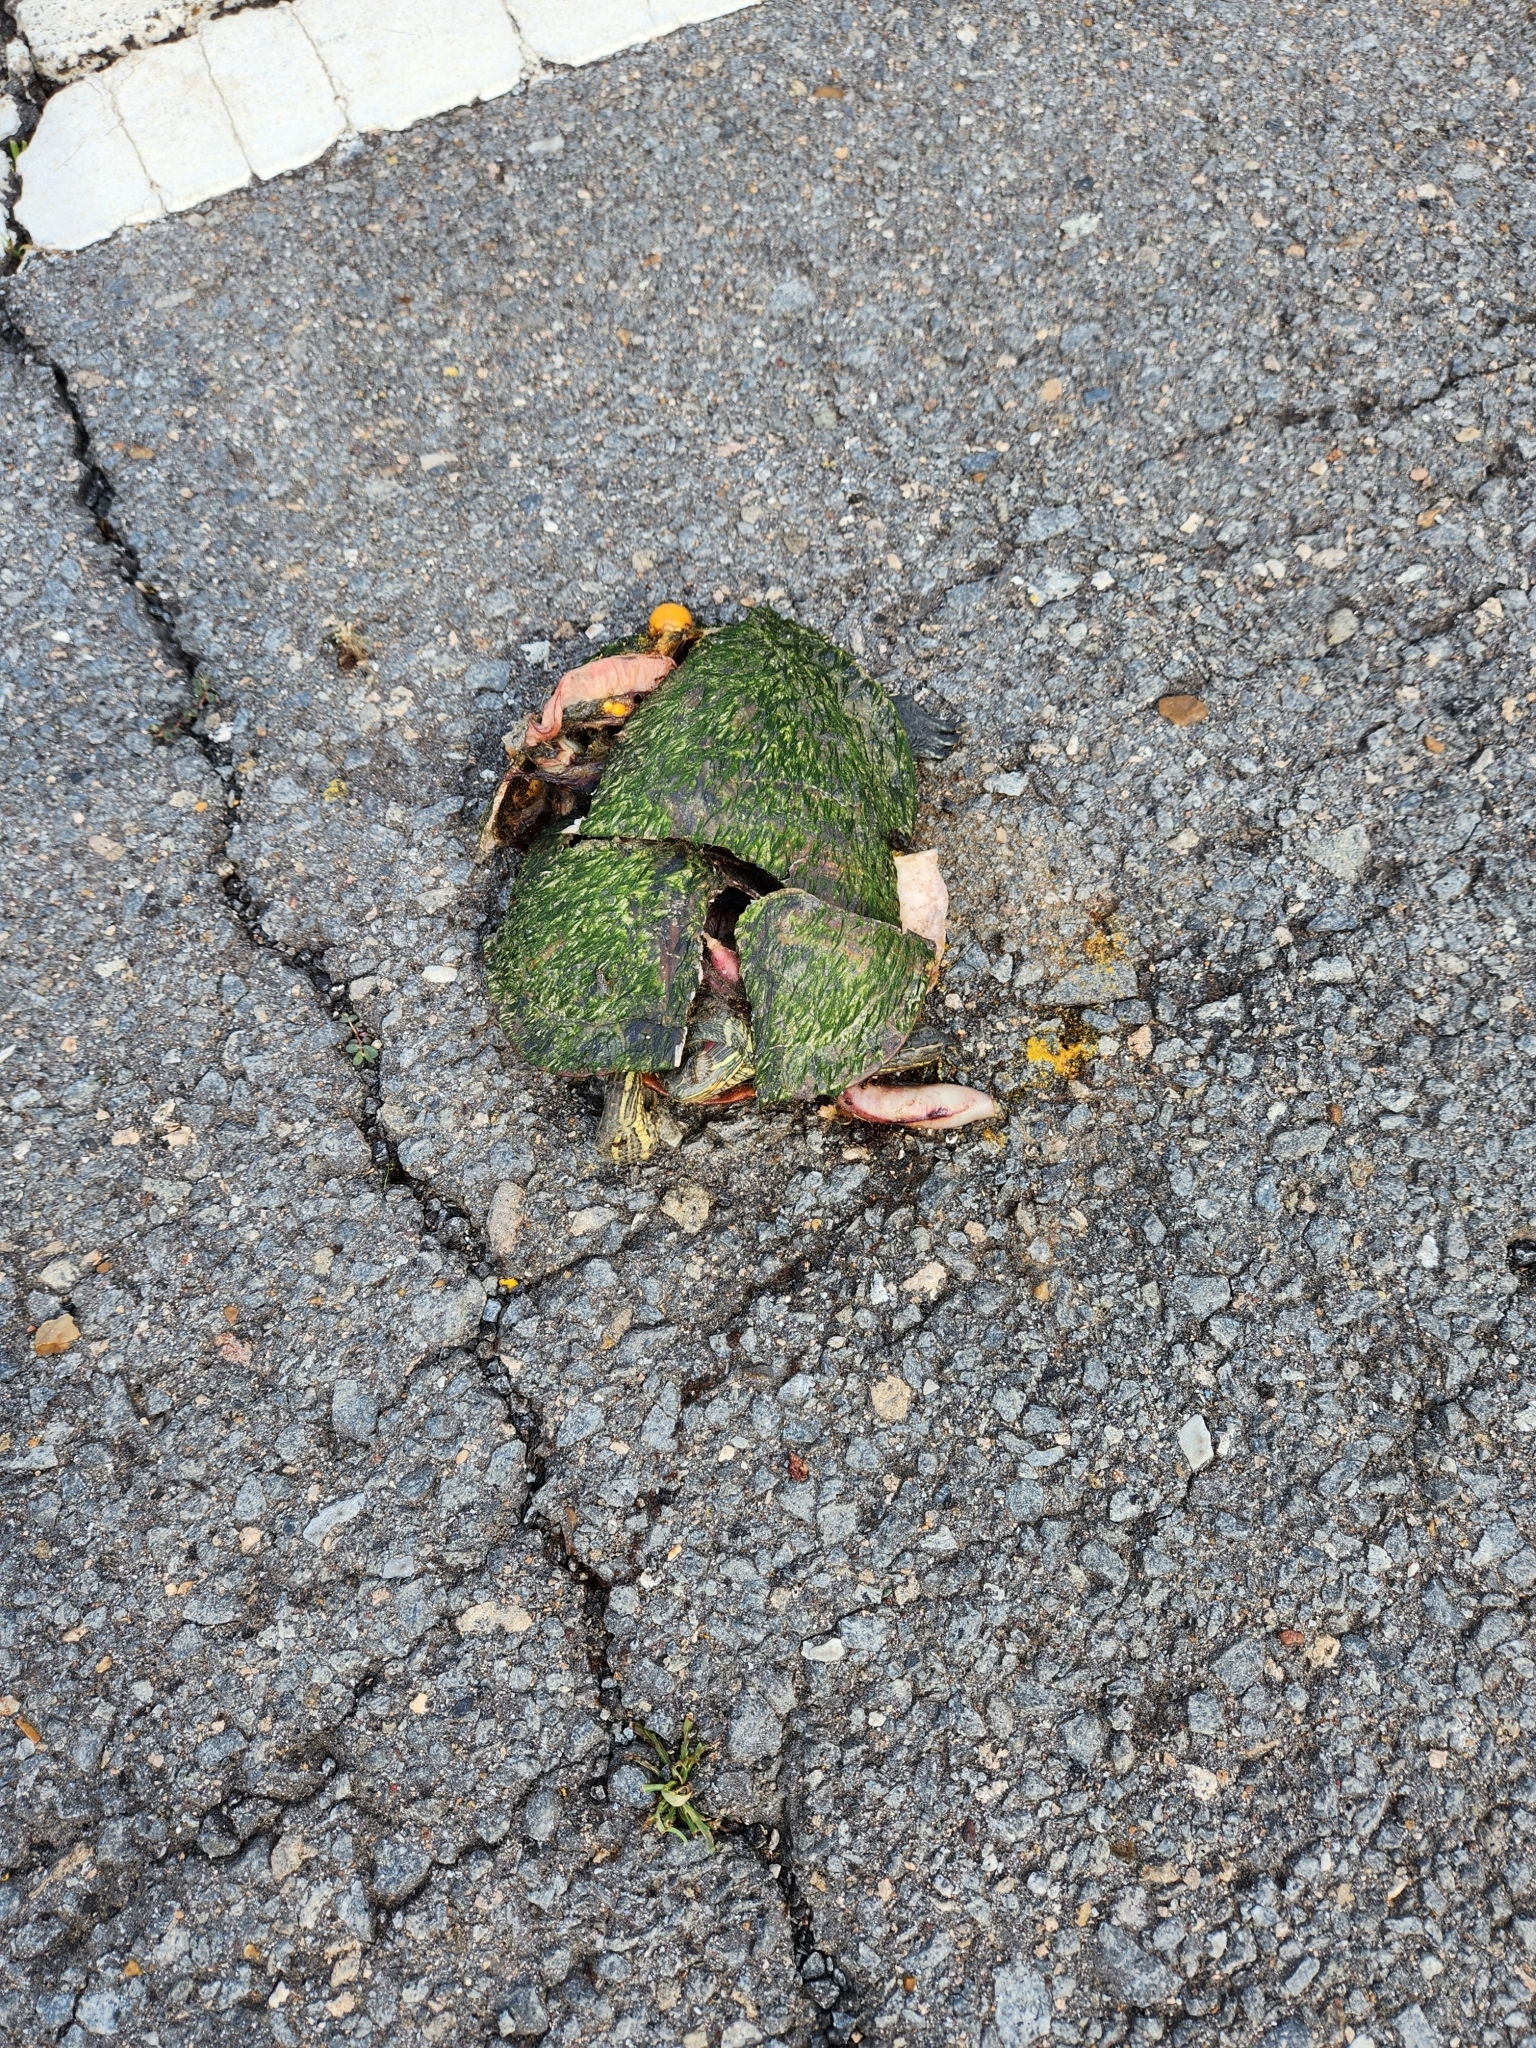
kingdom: Animalia
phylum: Chordata
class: Testudines
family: Emydidae
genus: Trachemys
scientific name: Trachemys scripta
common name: Slider
